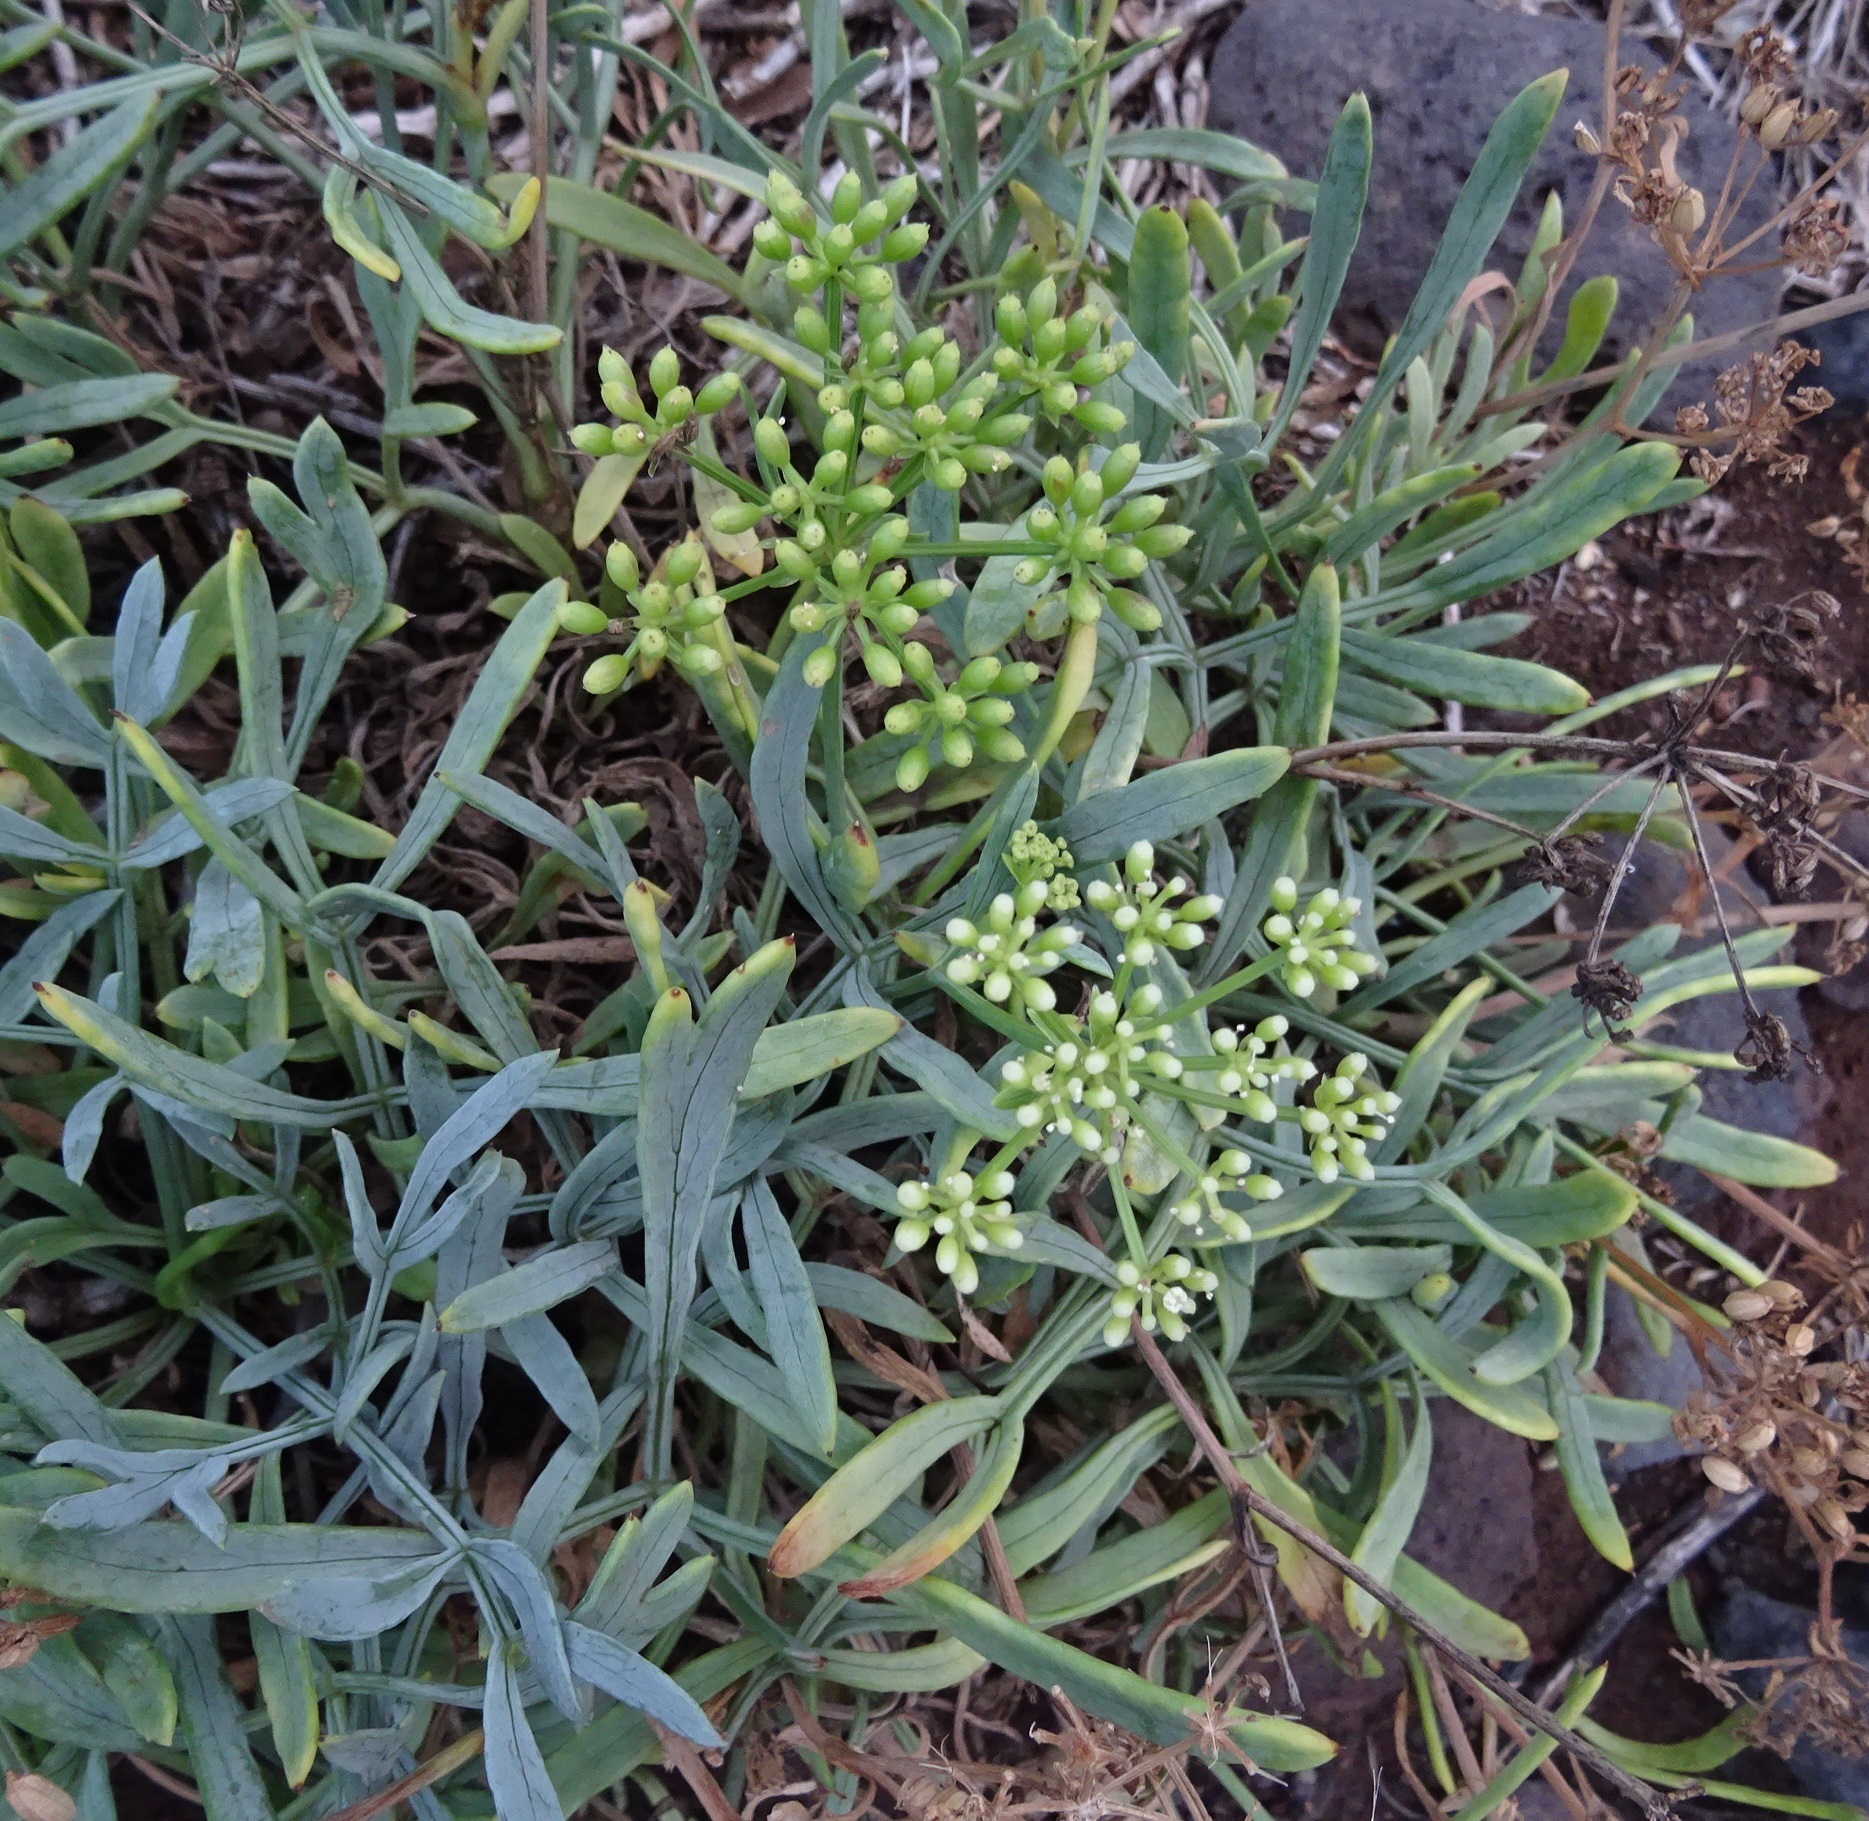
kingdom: Plantae
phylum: Tracheophyta
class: Magnoliopsida
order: Apiales
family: Apiaceae
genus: Crithmum
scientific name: Crithmum maritimum
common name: Rock samphire
